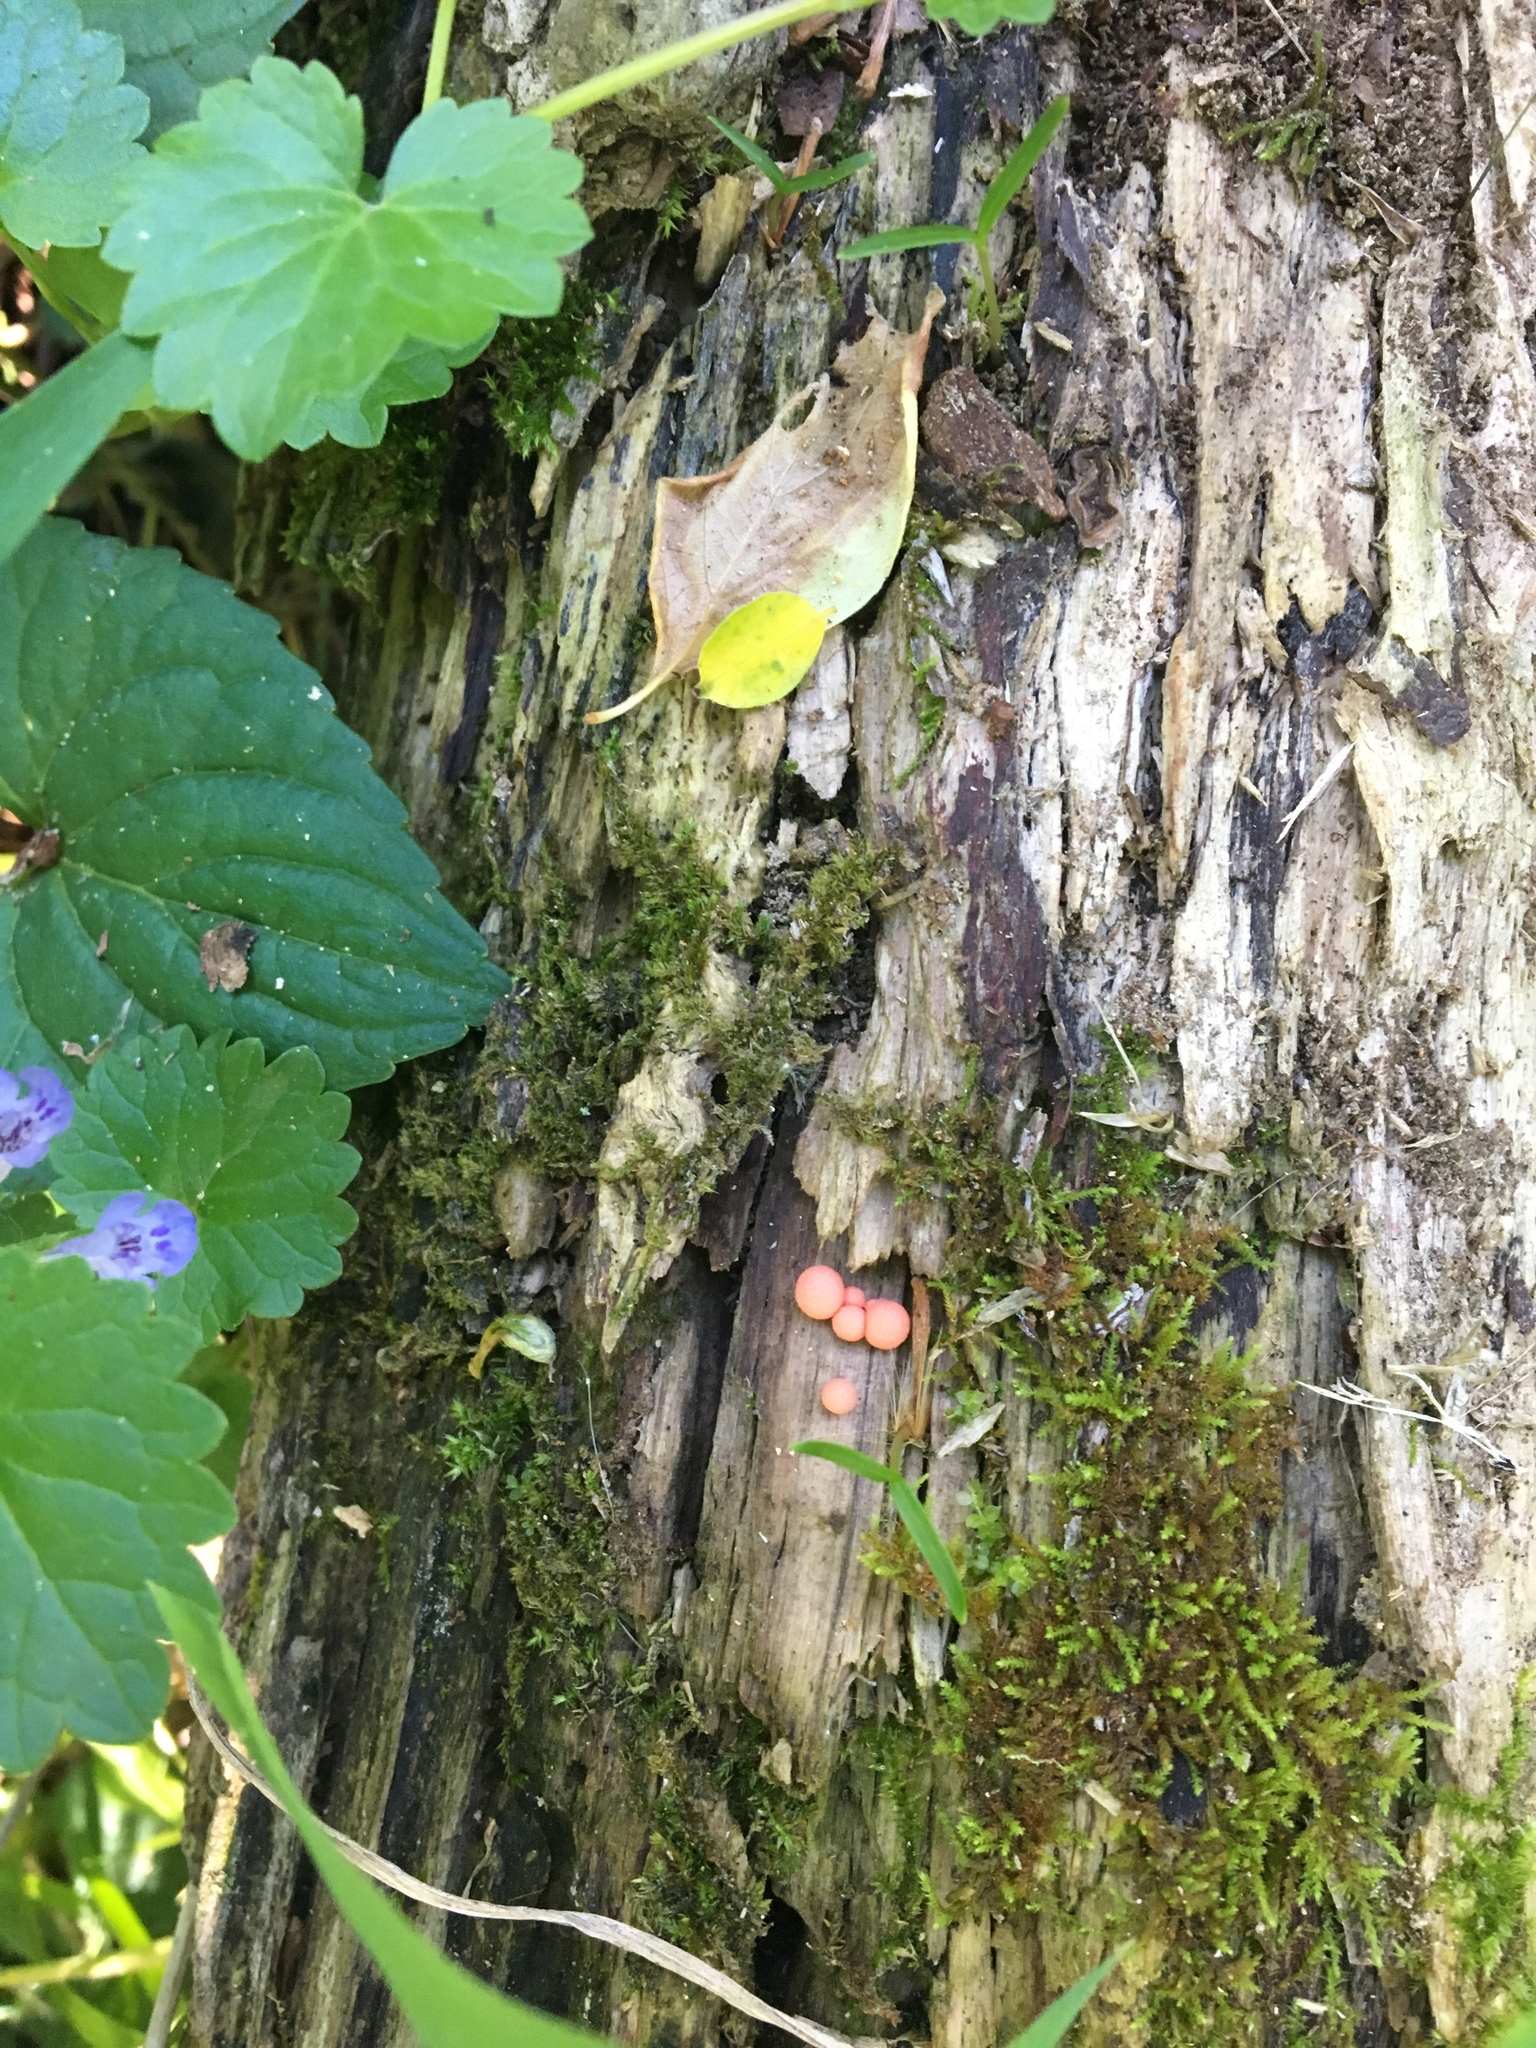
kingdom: Protozoa
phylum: Mycetozoa
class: Myxomycetes
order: Cribrariales
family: Tubiferaceae
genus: Lycogala
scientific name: Lycogala epidendrum
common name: Wolf's milk
